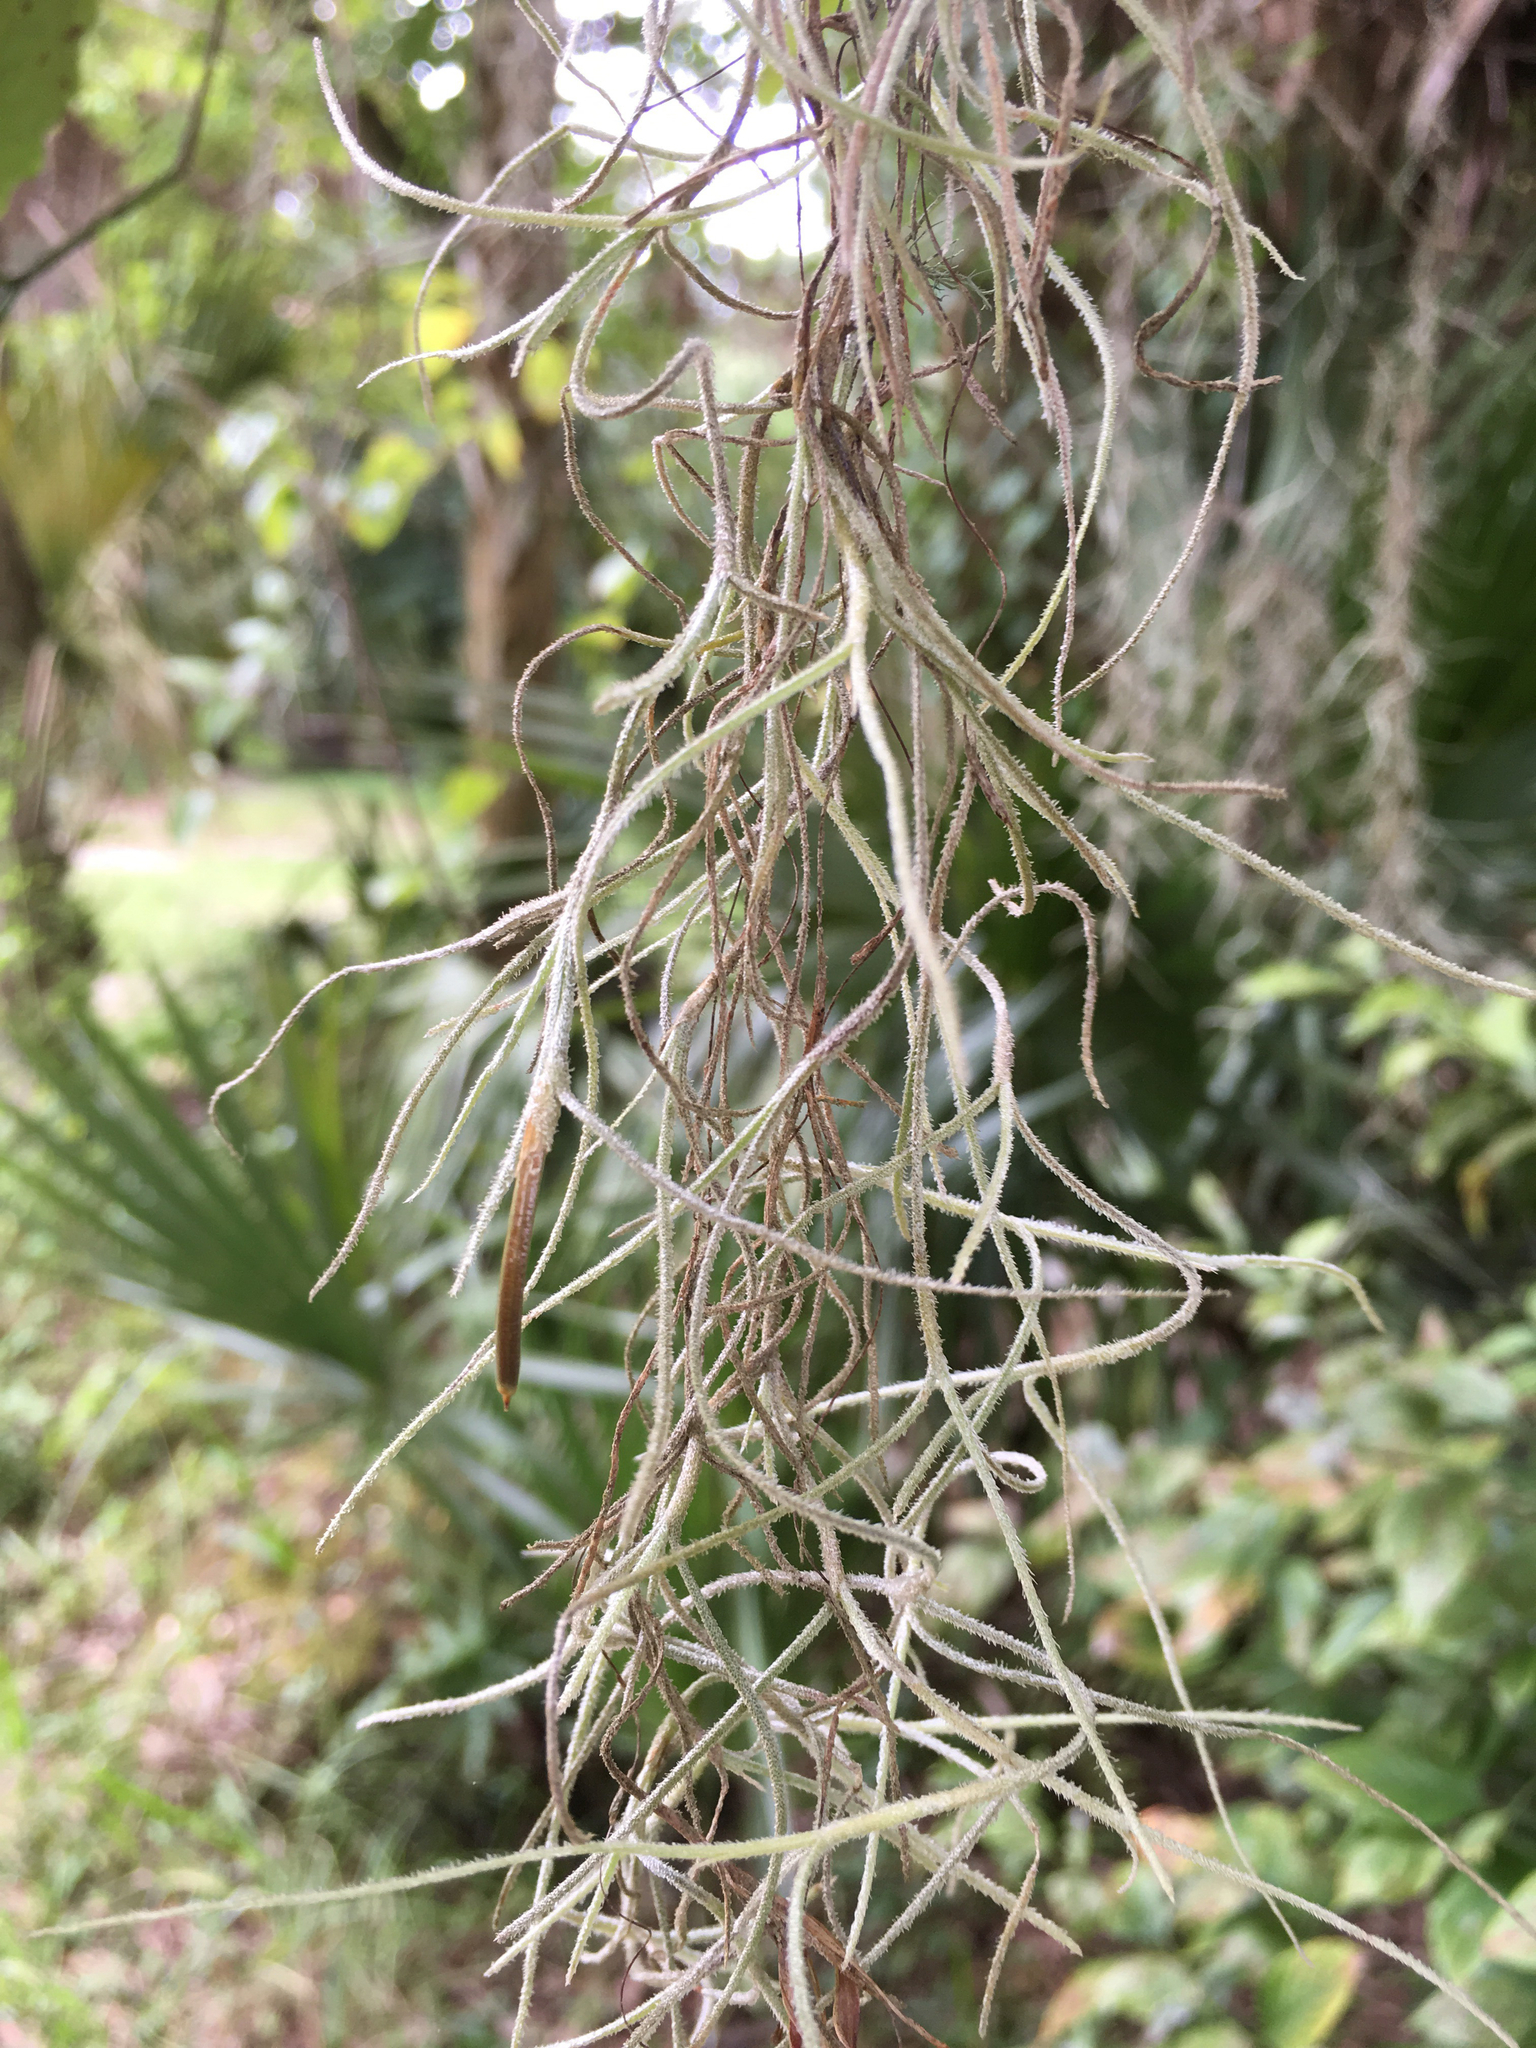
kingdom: Plantae
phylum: Tracheophyta
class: Liliopsida
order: Poales
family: Bromeliaceae
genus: Tillandsia
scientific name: Tillandsia usneoides
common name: Spanish moss
